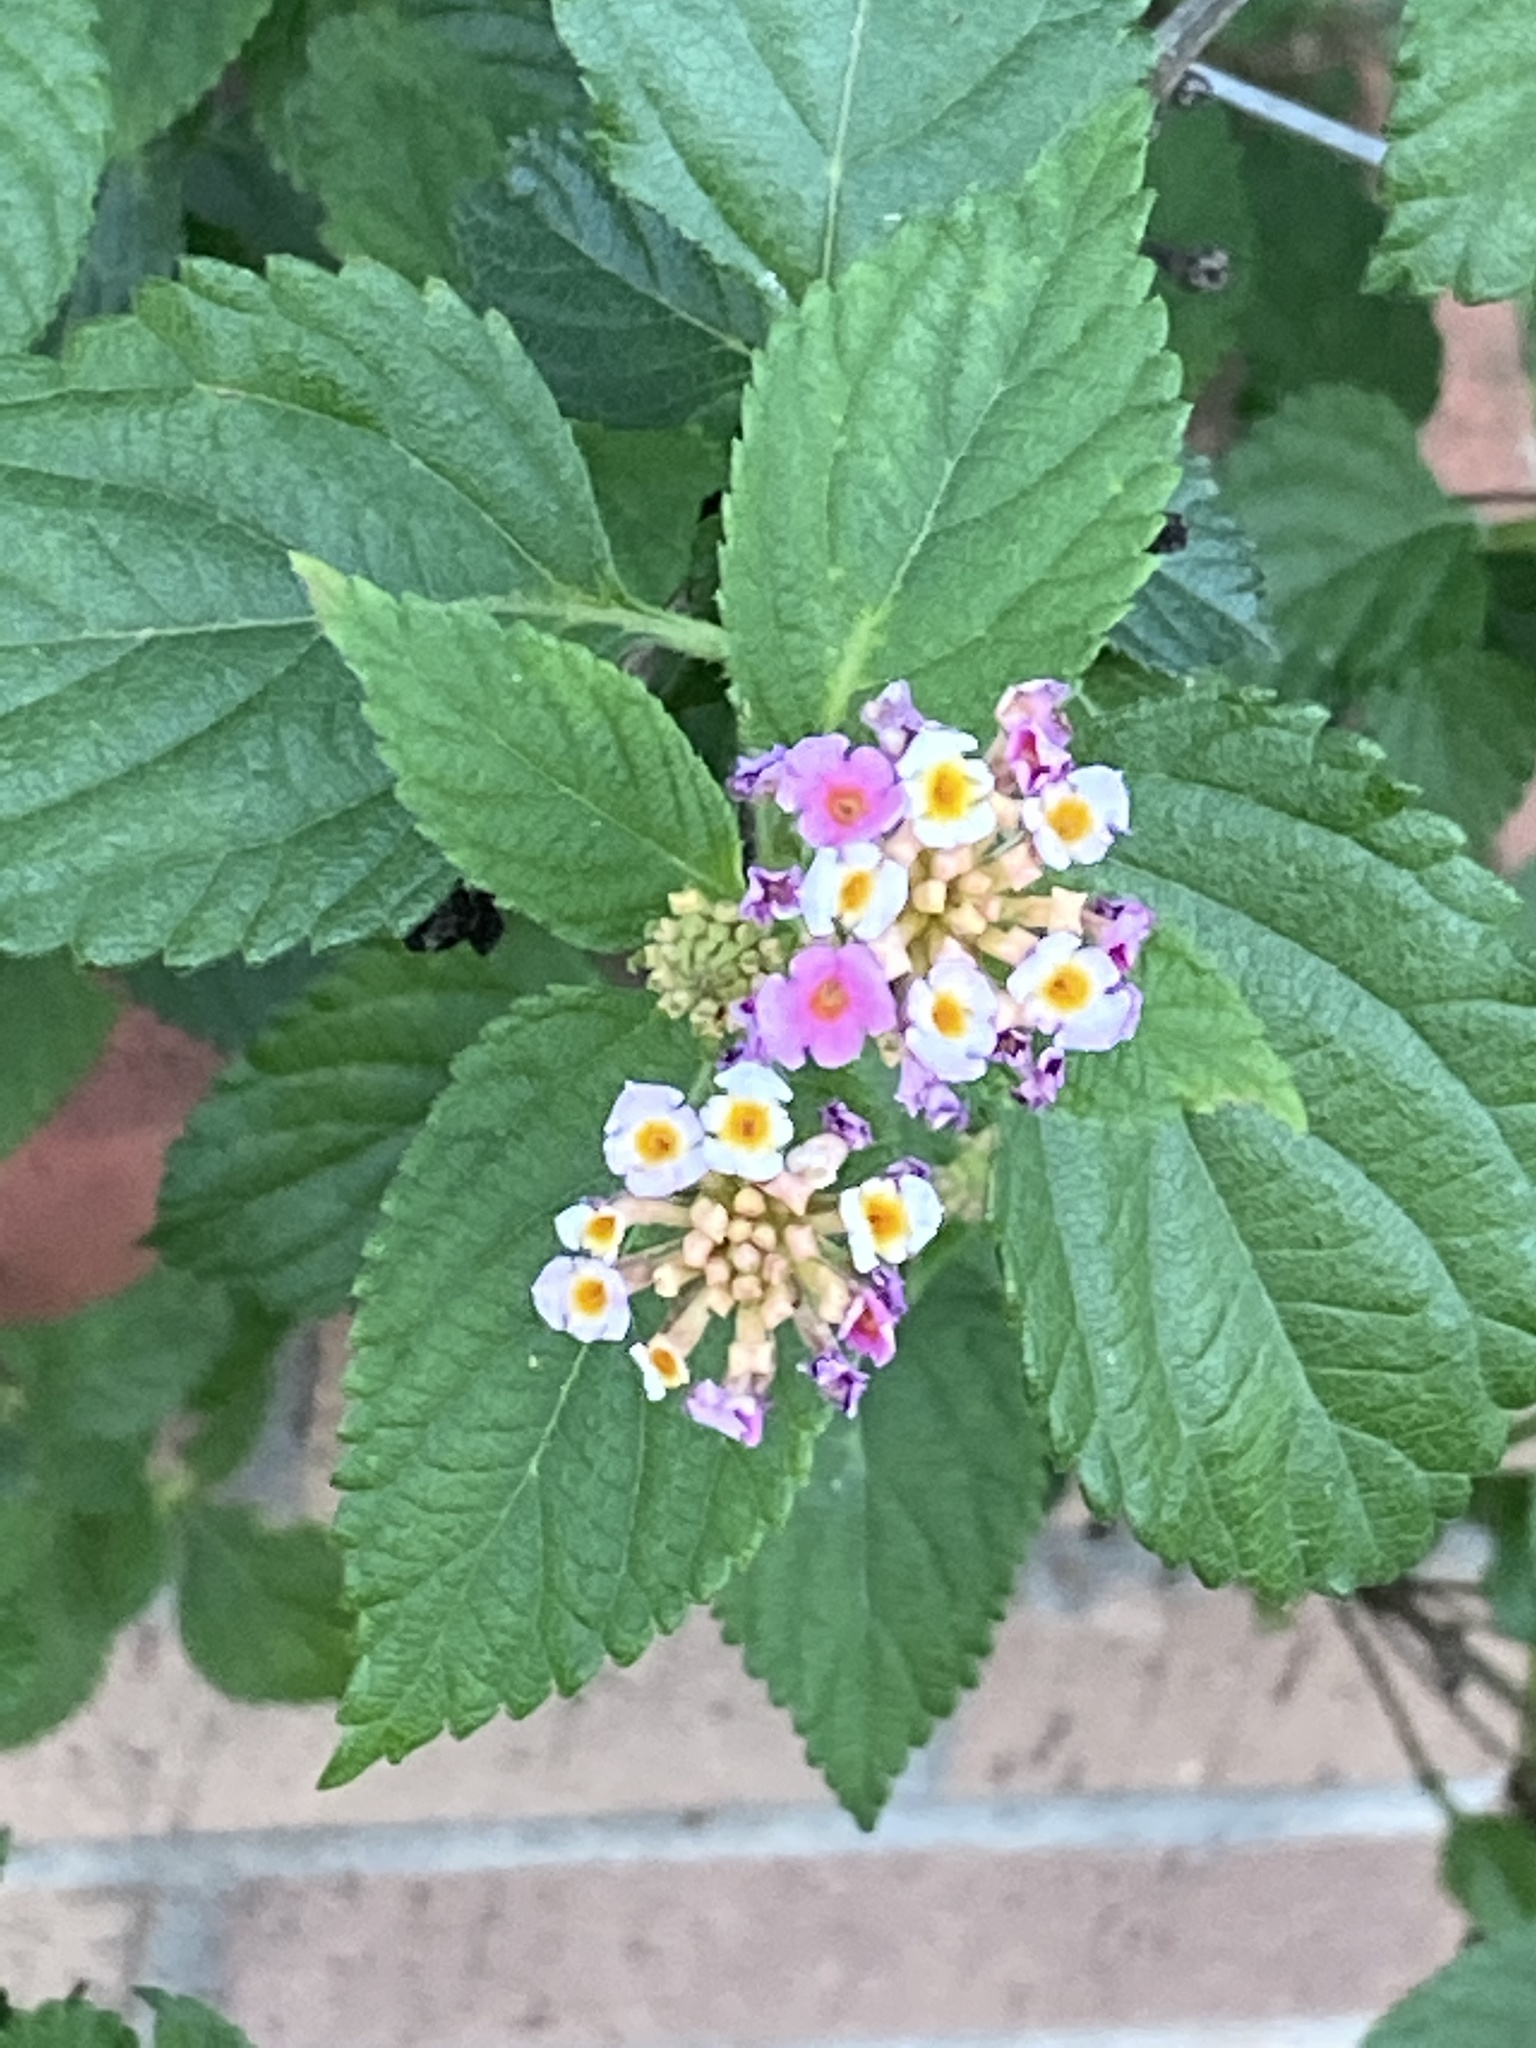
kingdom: Plantae
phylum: Tracheophyta
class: Magnoliopsida
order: Lamiales
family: Verbenaceae
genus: Lantana
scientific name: Lantana strigocamara
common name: Lantana
